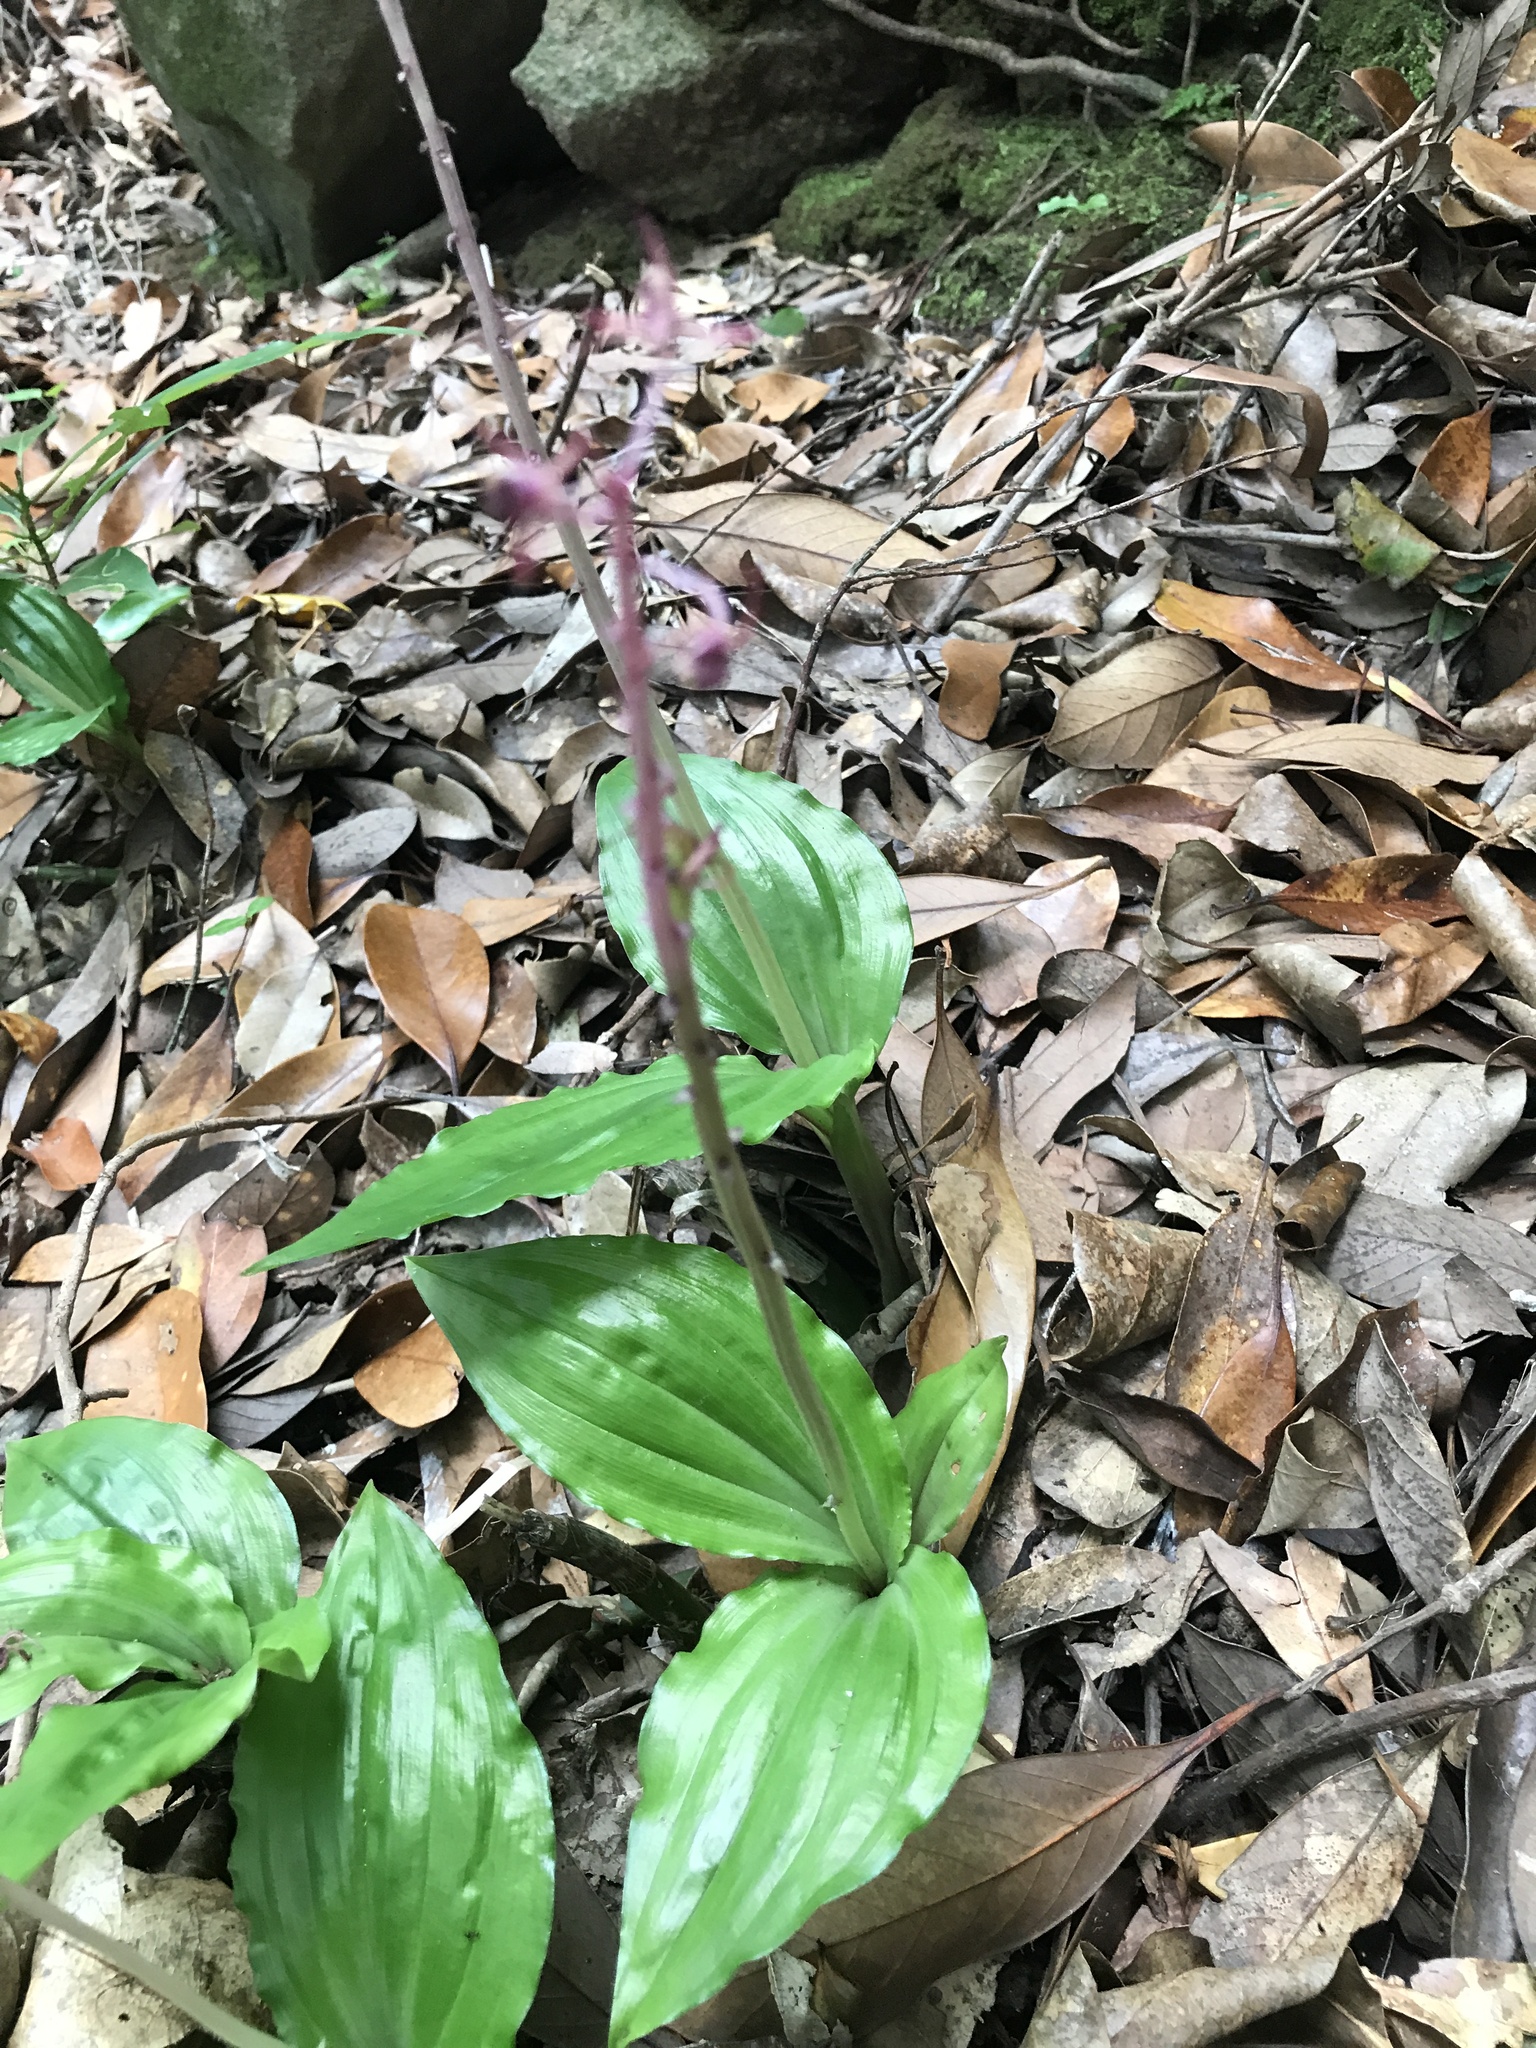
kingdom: Plantae
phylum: Tracheophyta
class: Liliopsida
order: Asparagales
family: Orchidaceae
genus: Liparis
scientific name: Liparis formosana
